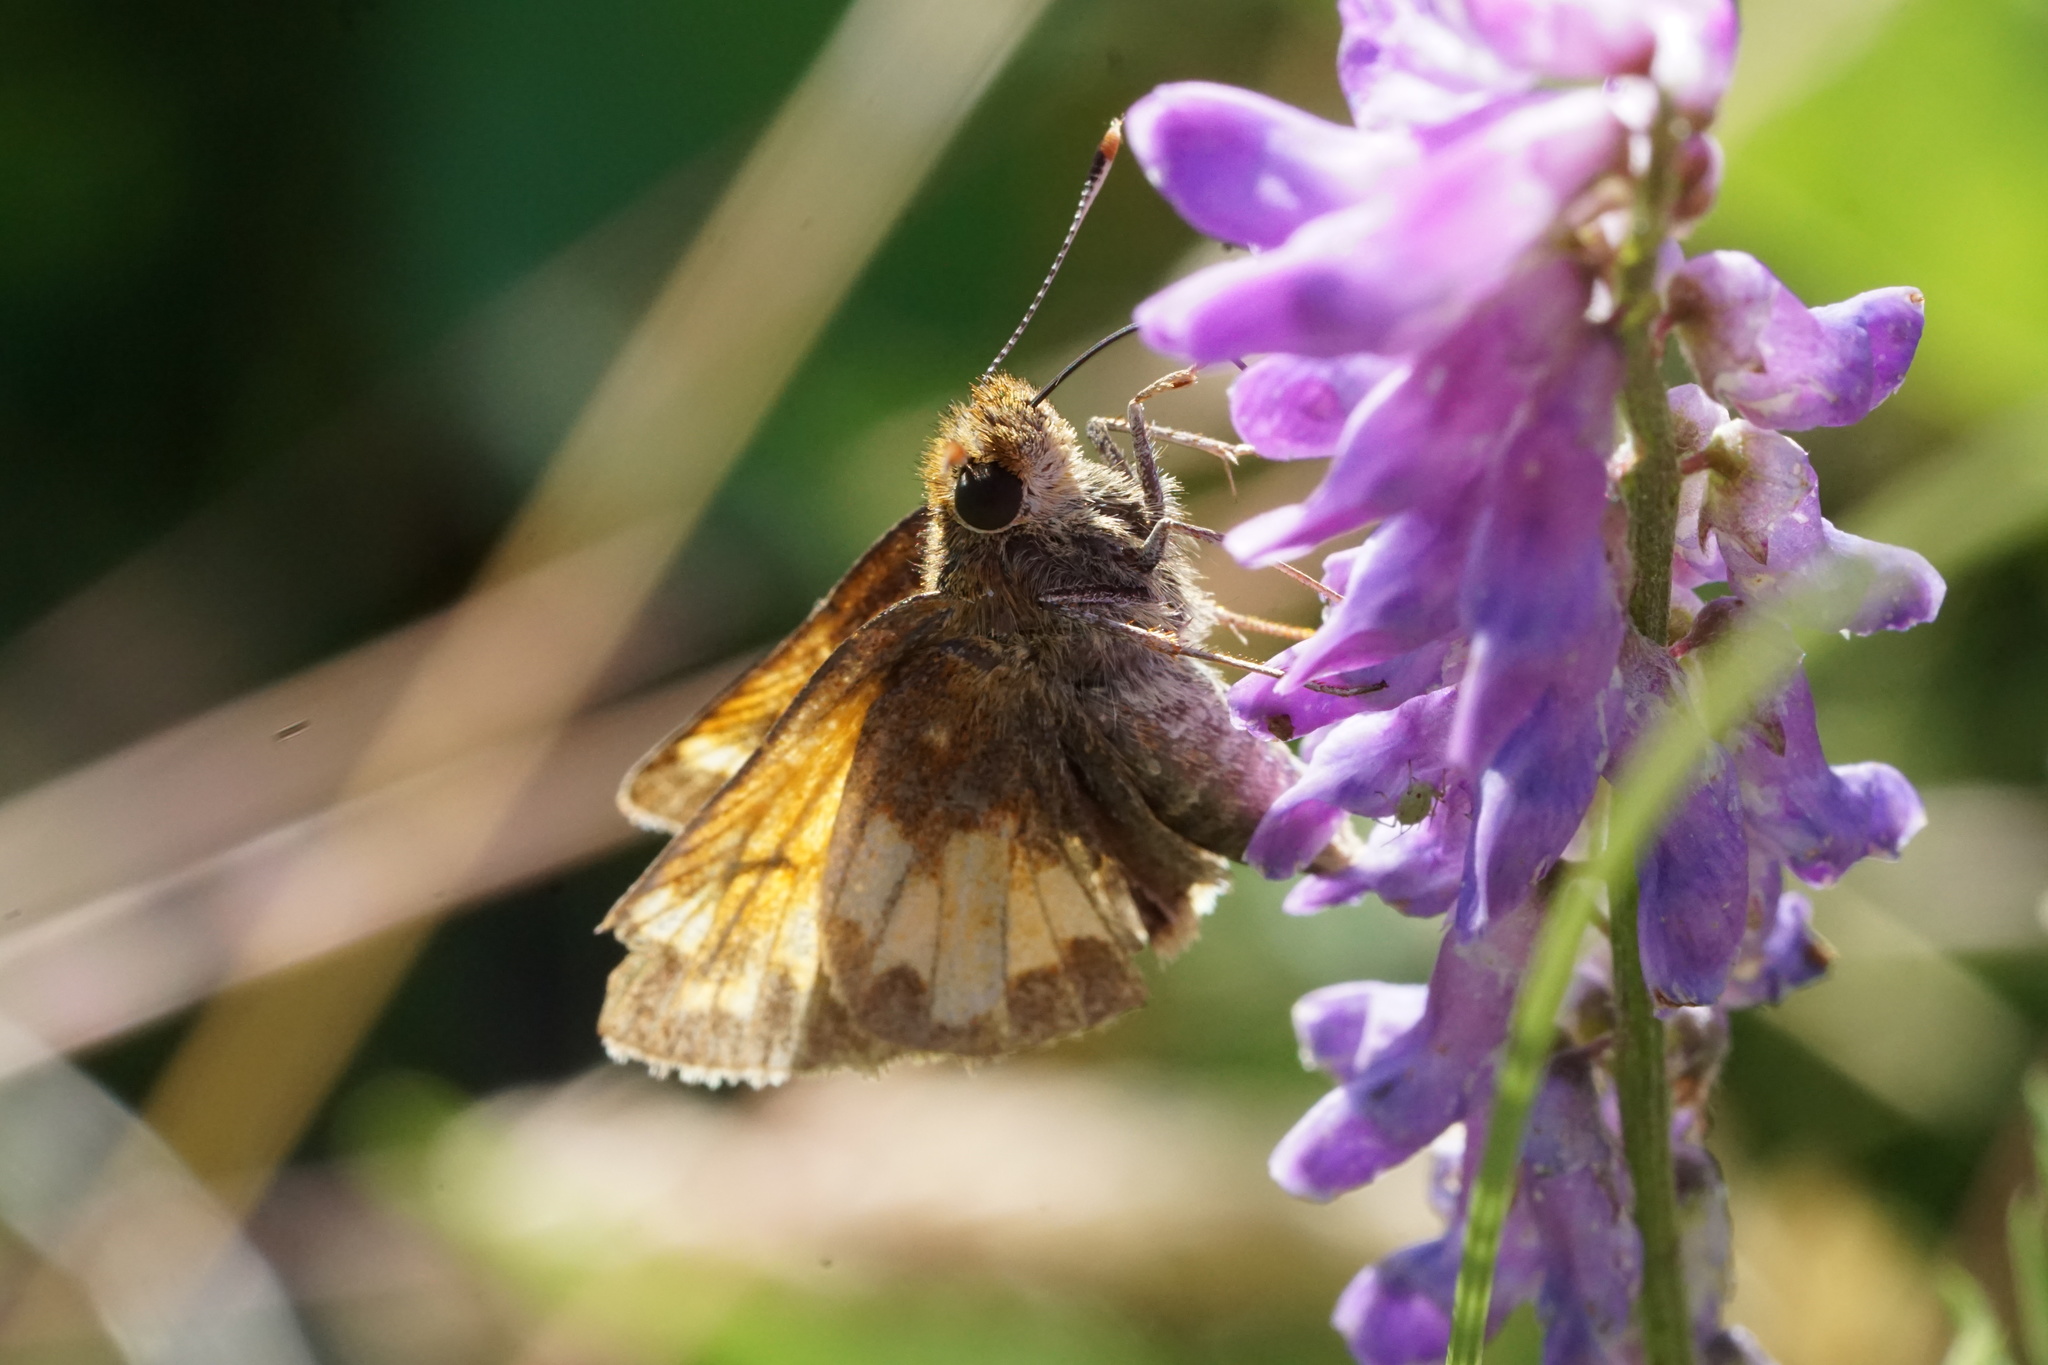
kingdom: Animalia
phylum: Arthropoda
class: Insecta
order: Lepidoptera
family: Hesperiidae
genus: Lon
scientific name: Lon hobomok
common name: Hobomok skipper
